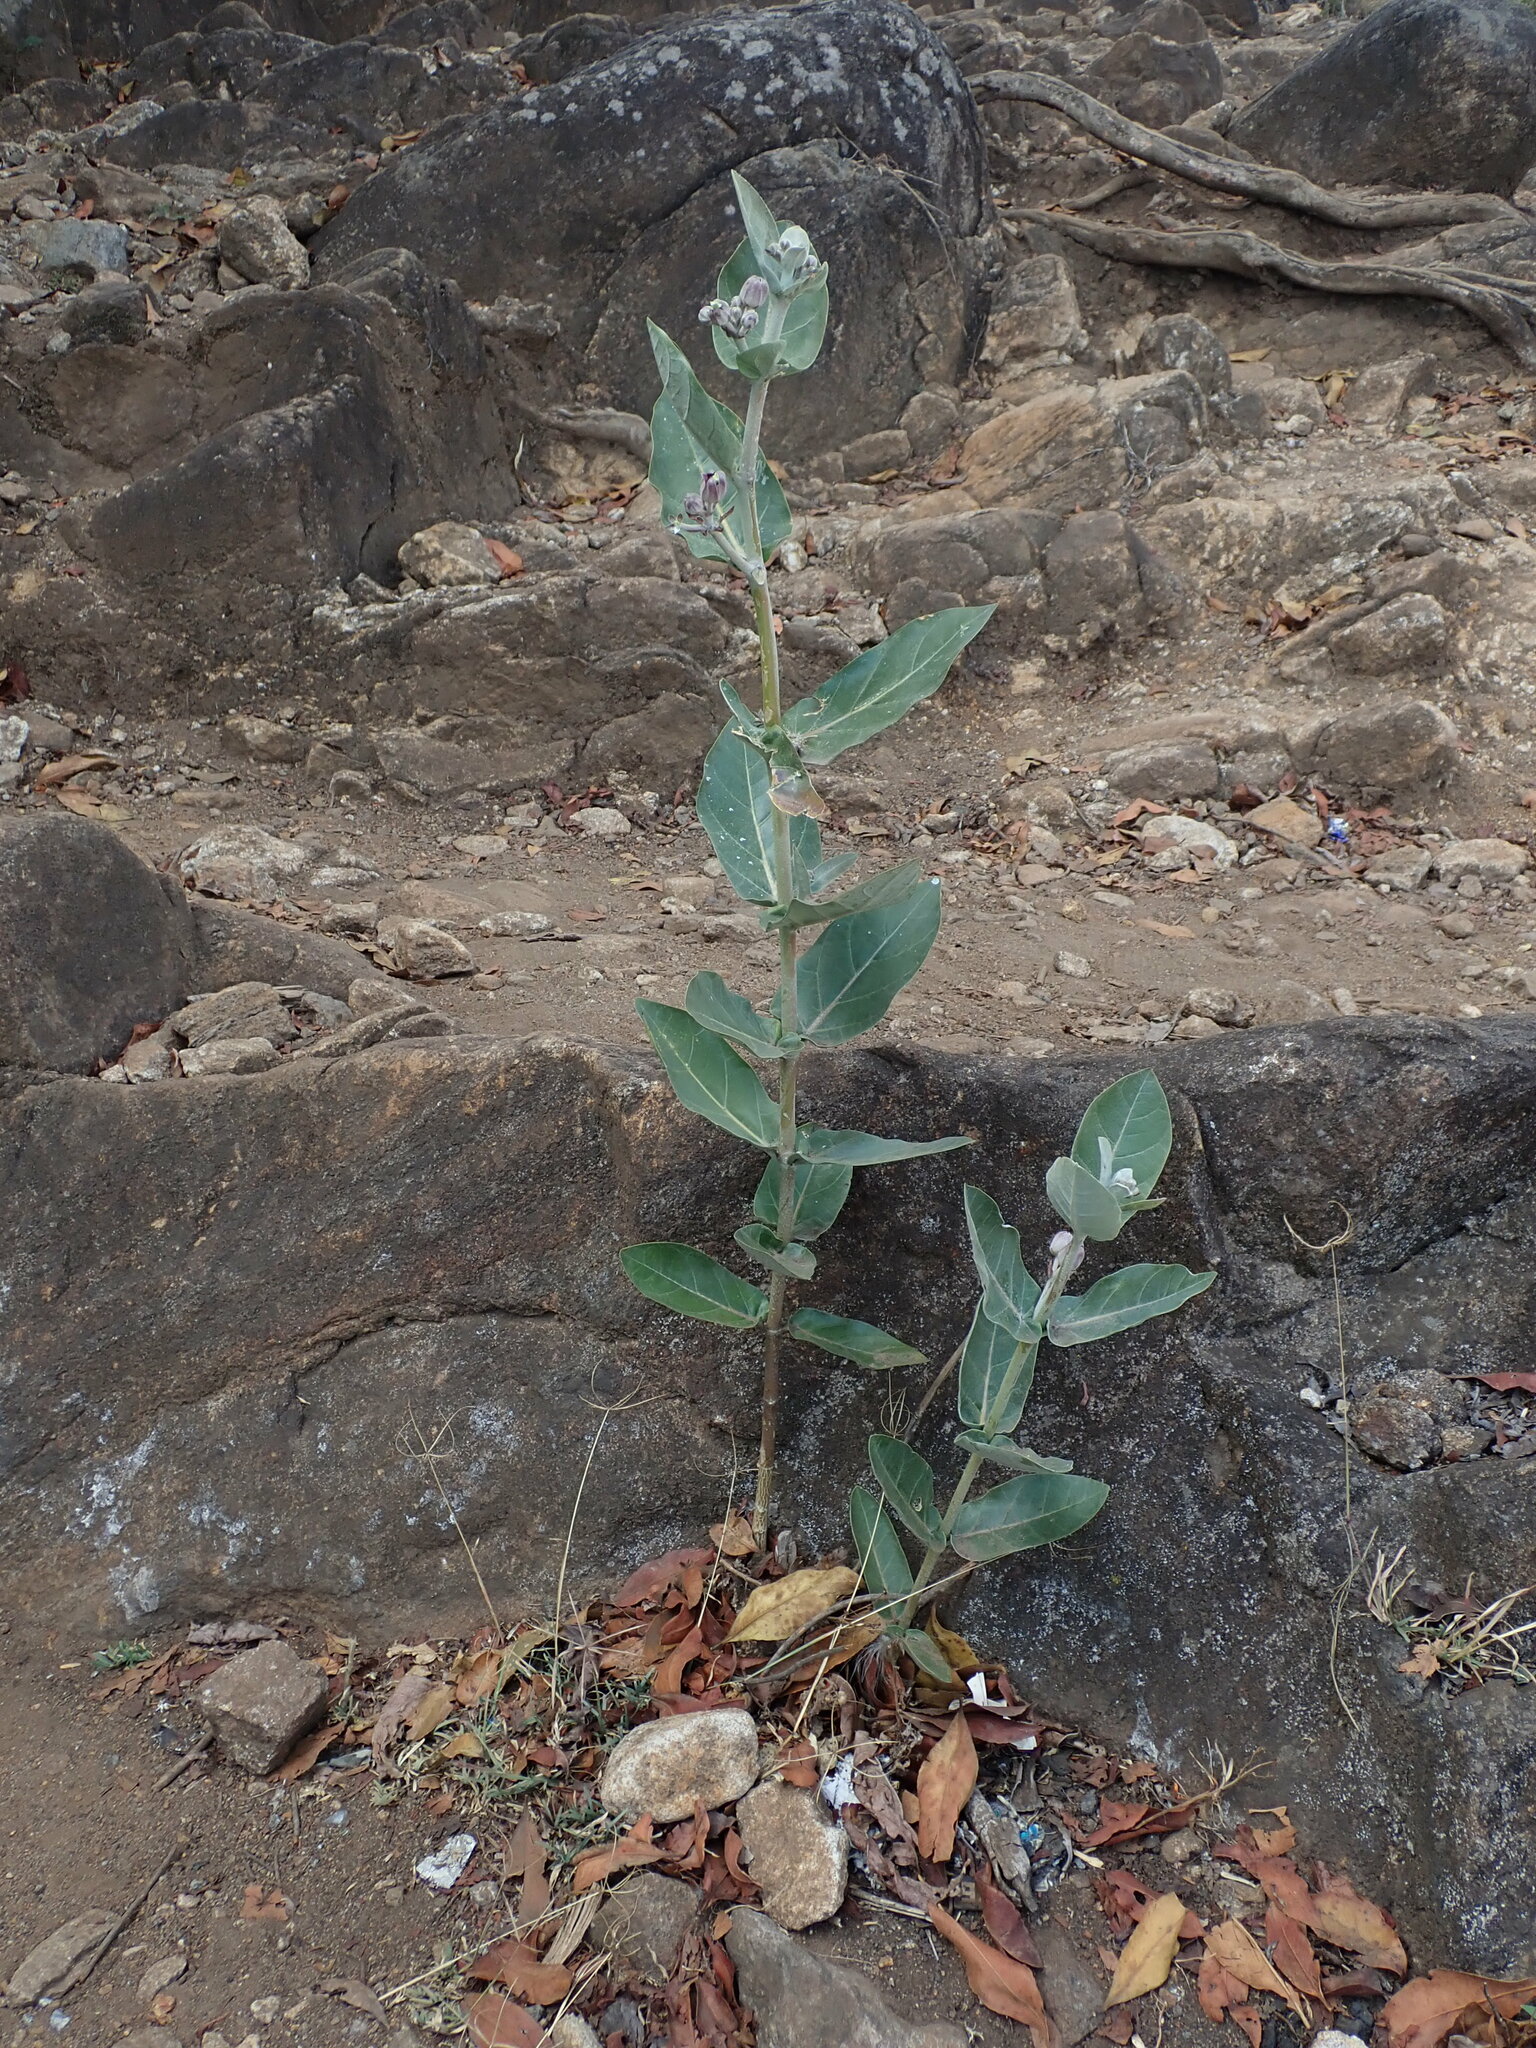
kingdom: Plantae
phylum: Tracheophyta
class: Magnoliopsida
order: Gentianales
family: Apocynaceae
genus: Calotropis
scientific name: Calotropis gigantea
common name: Crown flower
